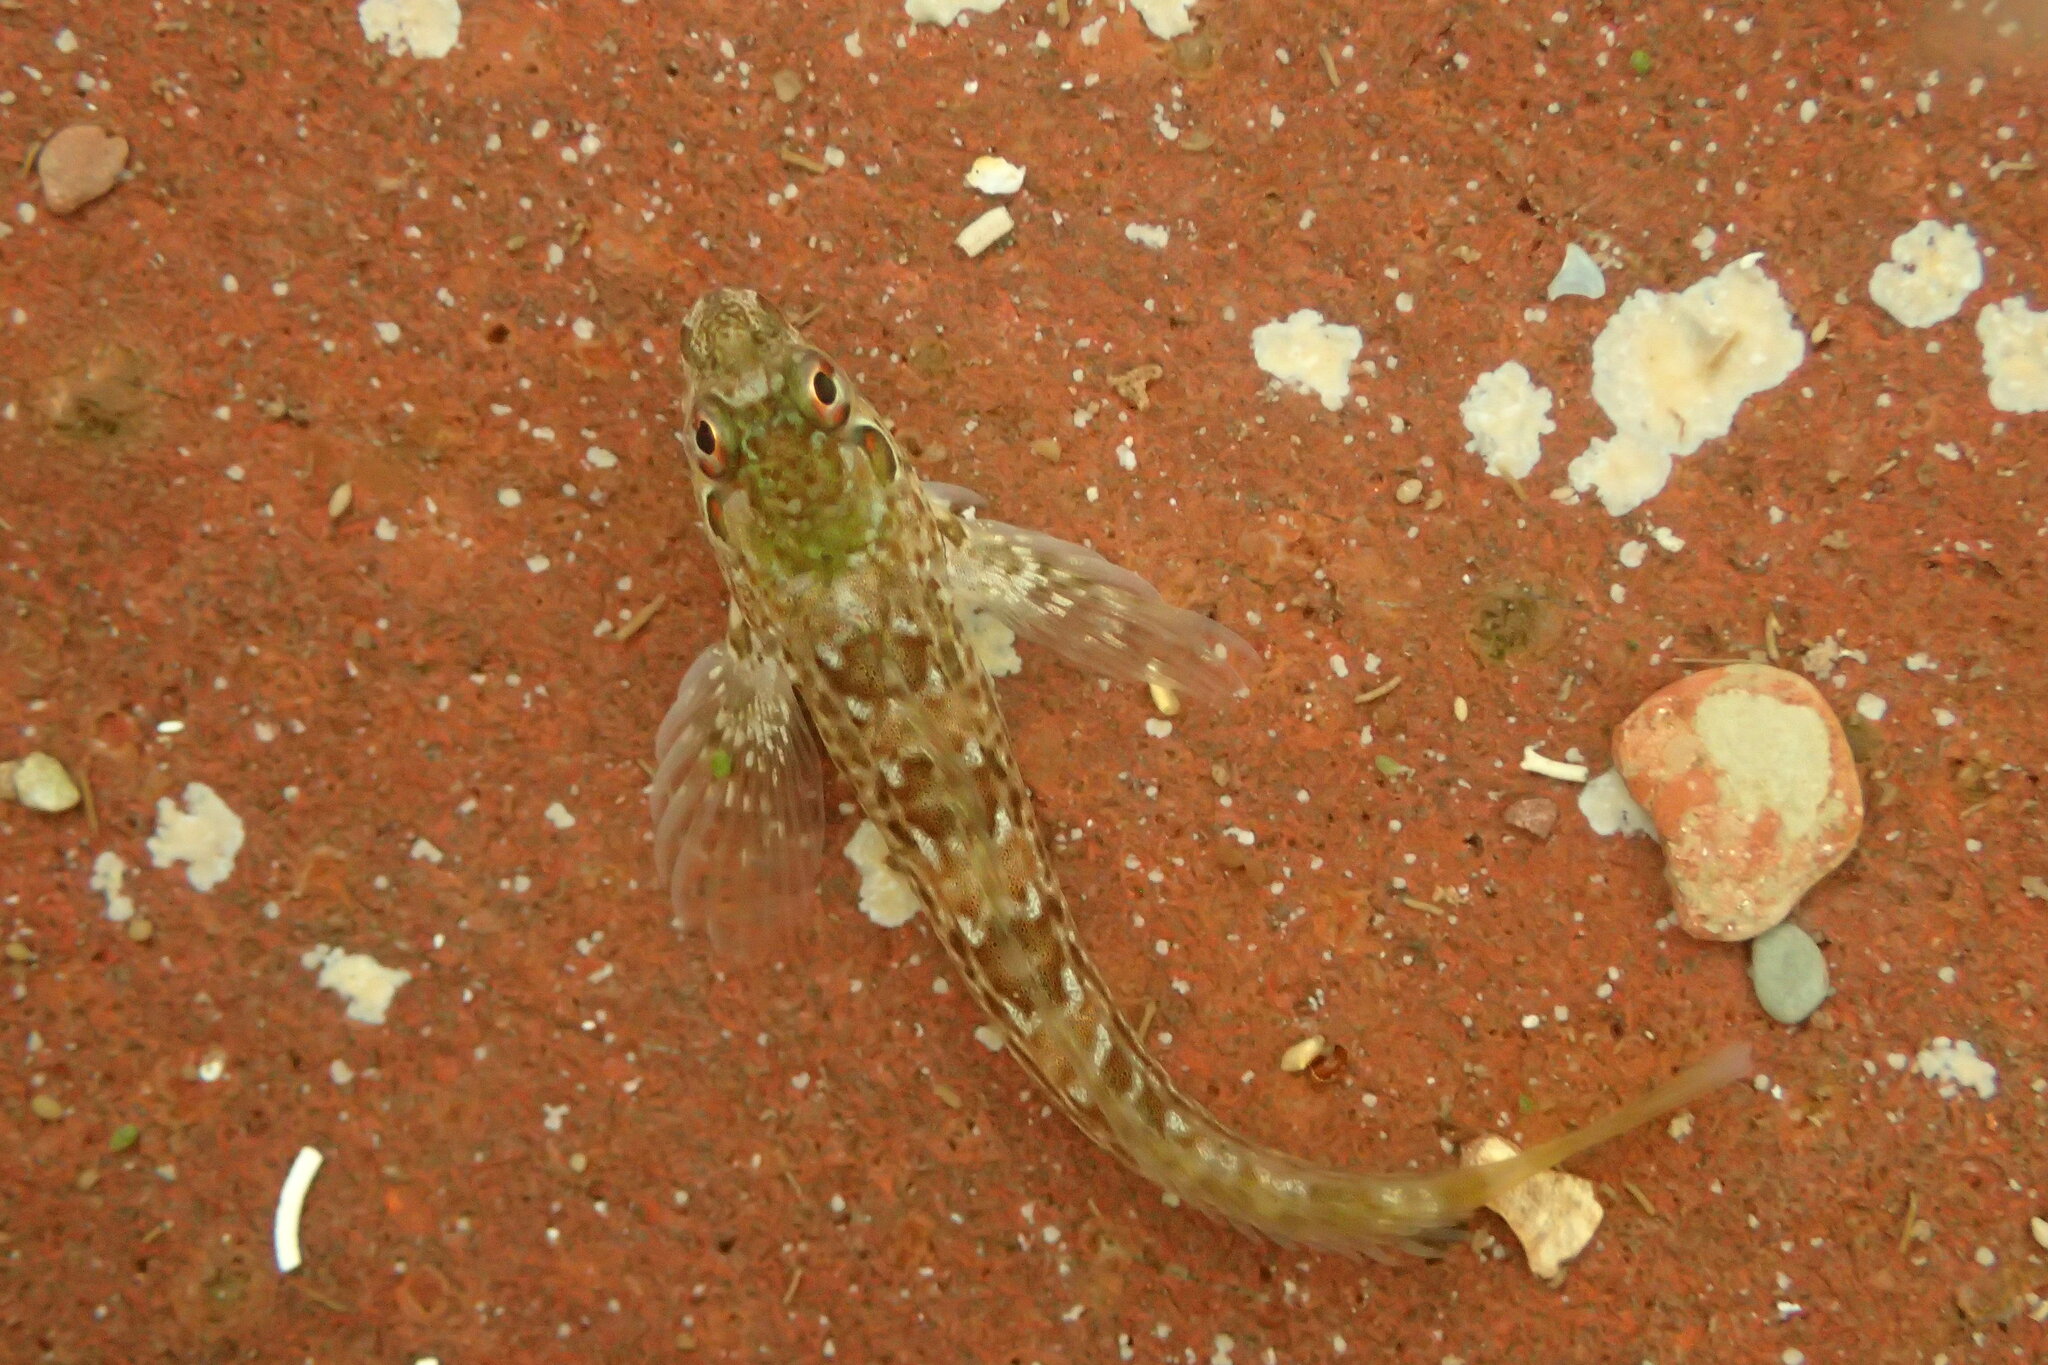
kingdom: Animalia
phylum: Chordata
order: Perciformes
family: Blenniidae
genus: Lipophrys
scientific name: Lipophrys pholis
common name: Shanny
